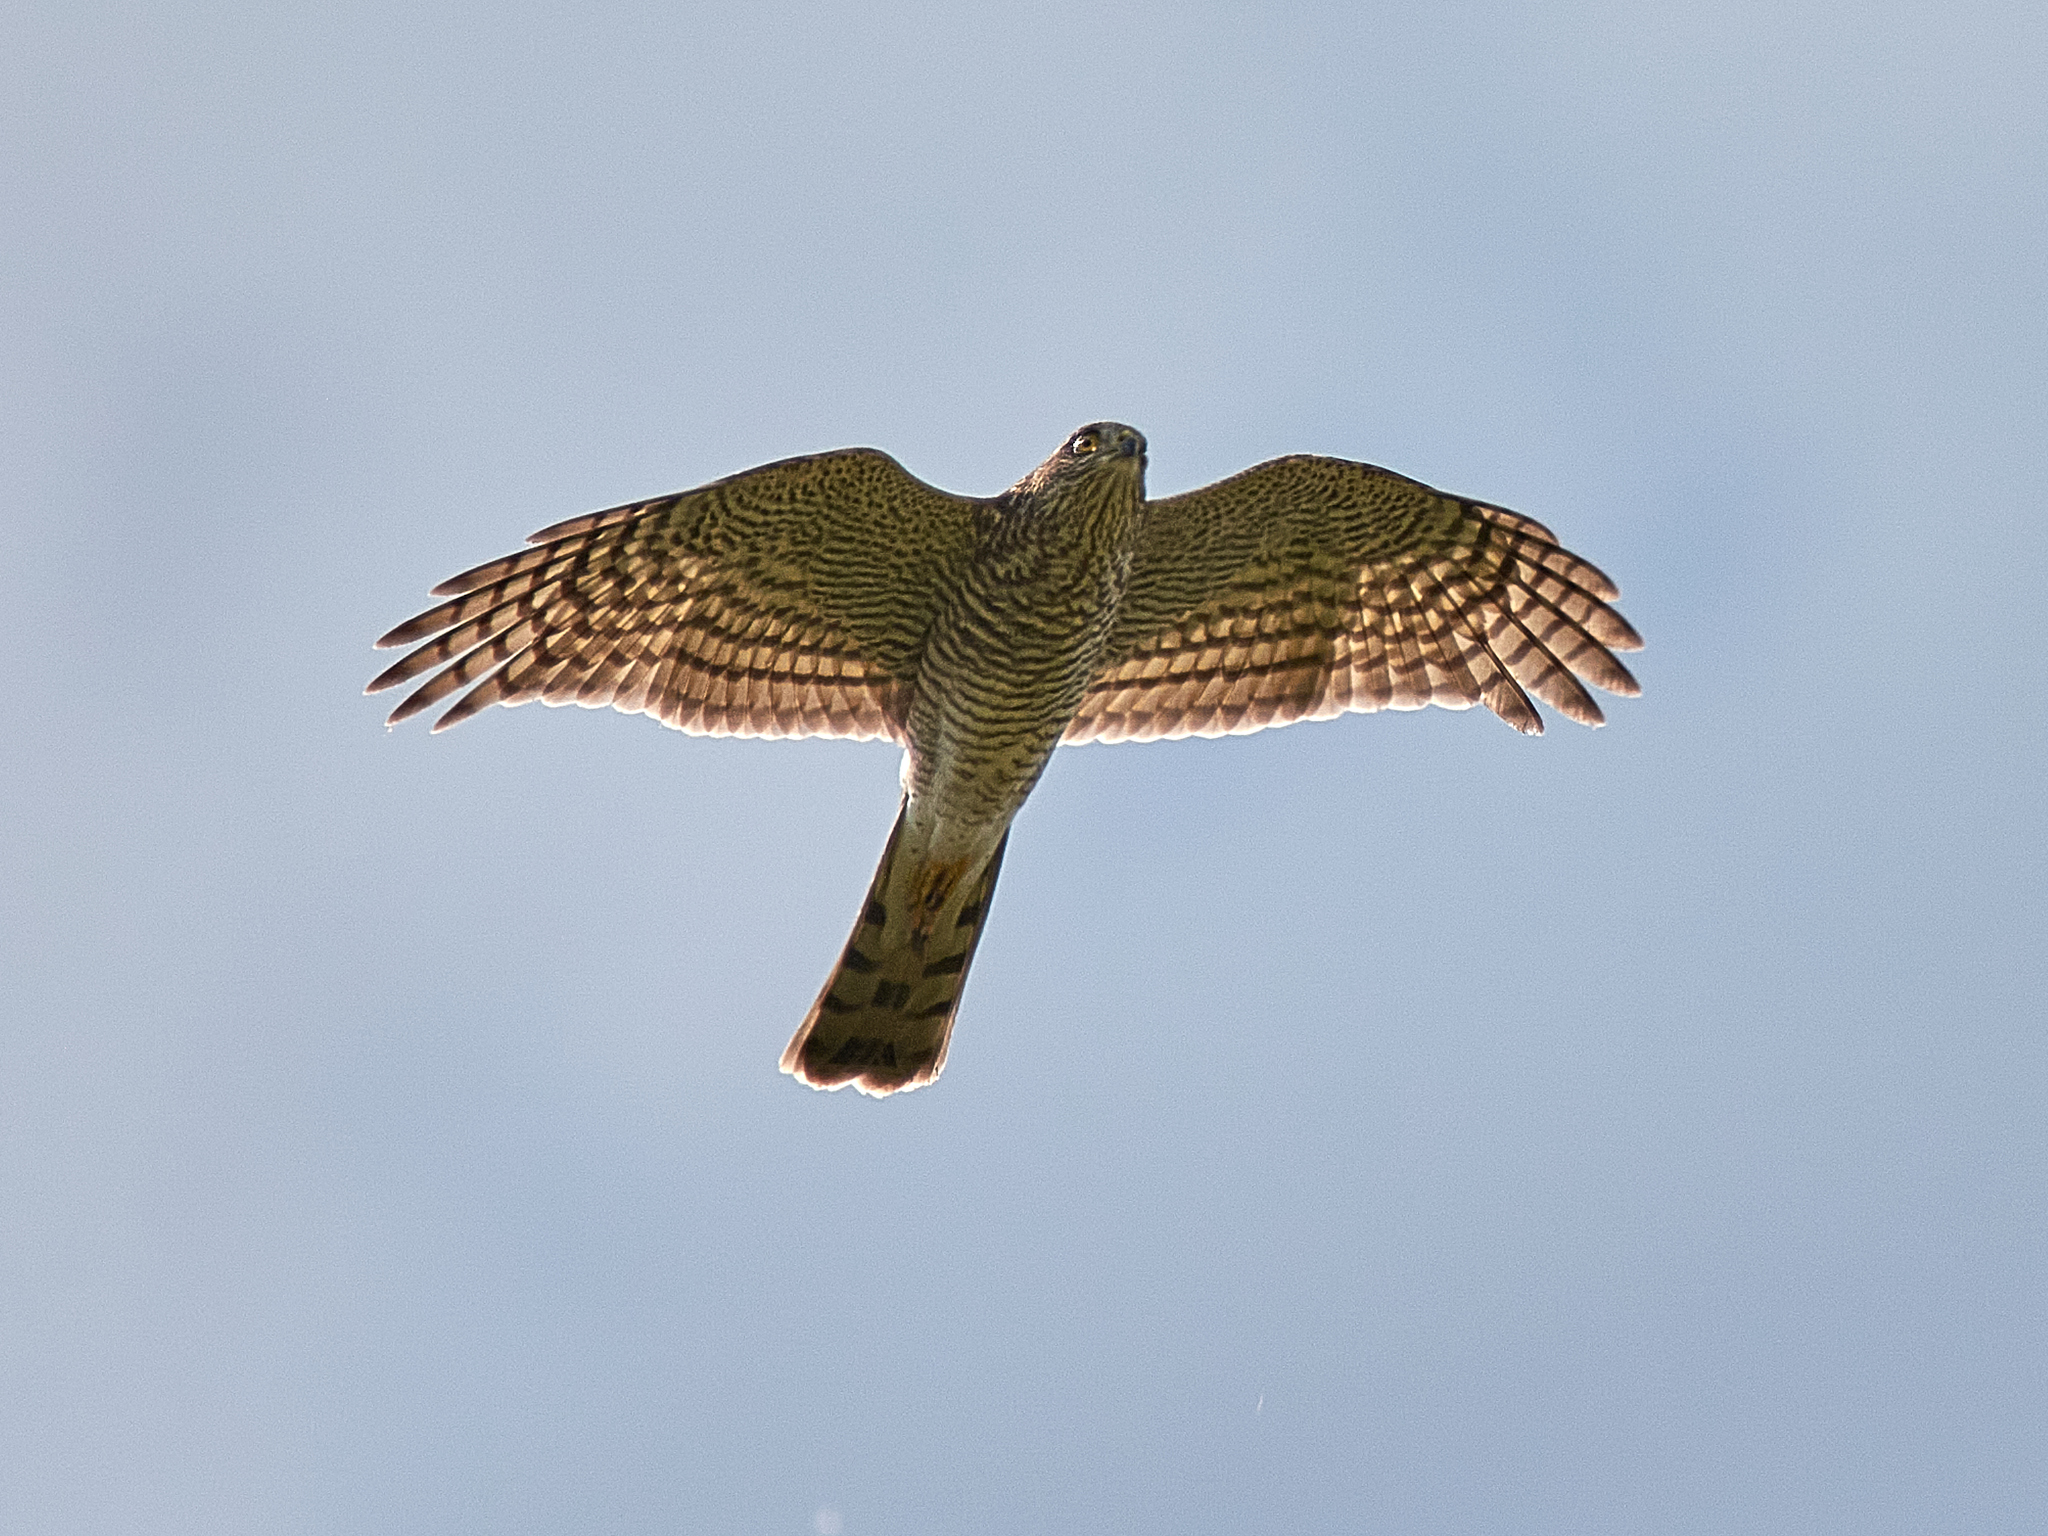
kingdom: Animalia
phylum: Chordata
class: Aves
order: Accipitriformes
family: Accipitridae
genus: Accipiter
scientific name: Accipiter nisus
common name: Eurasian sparrowhawk
